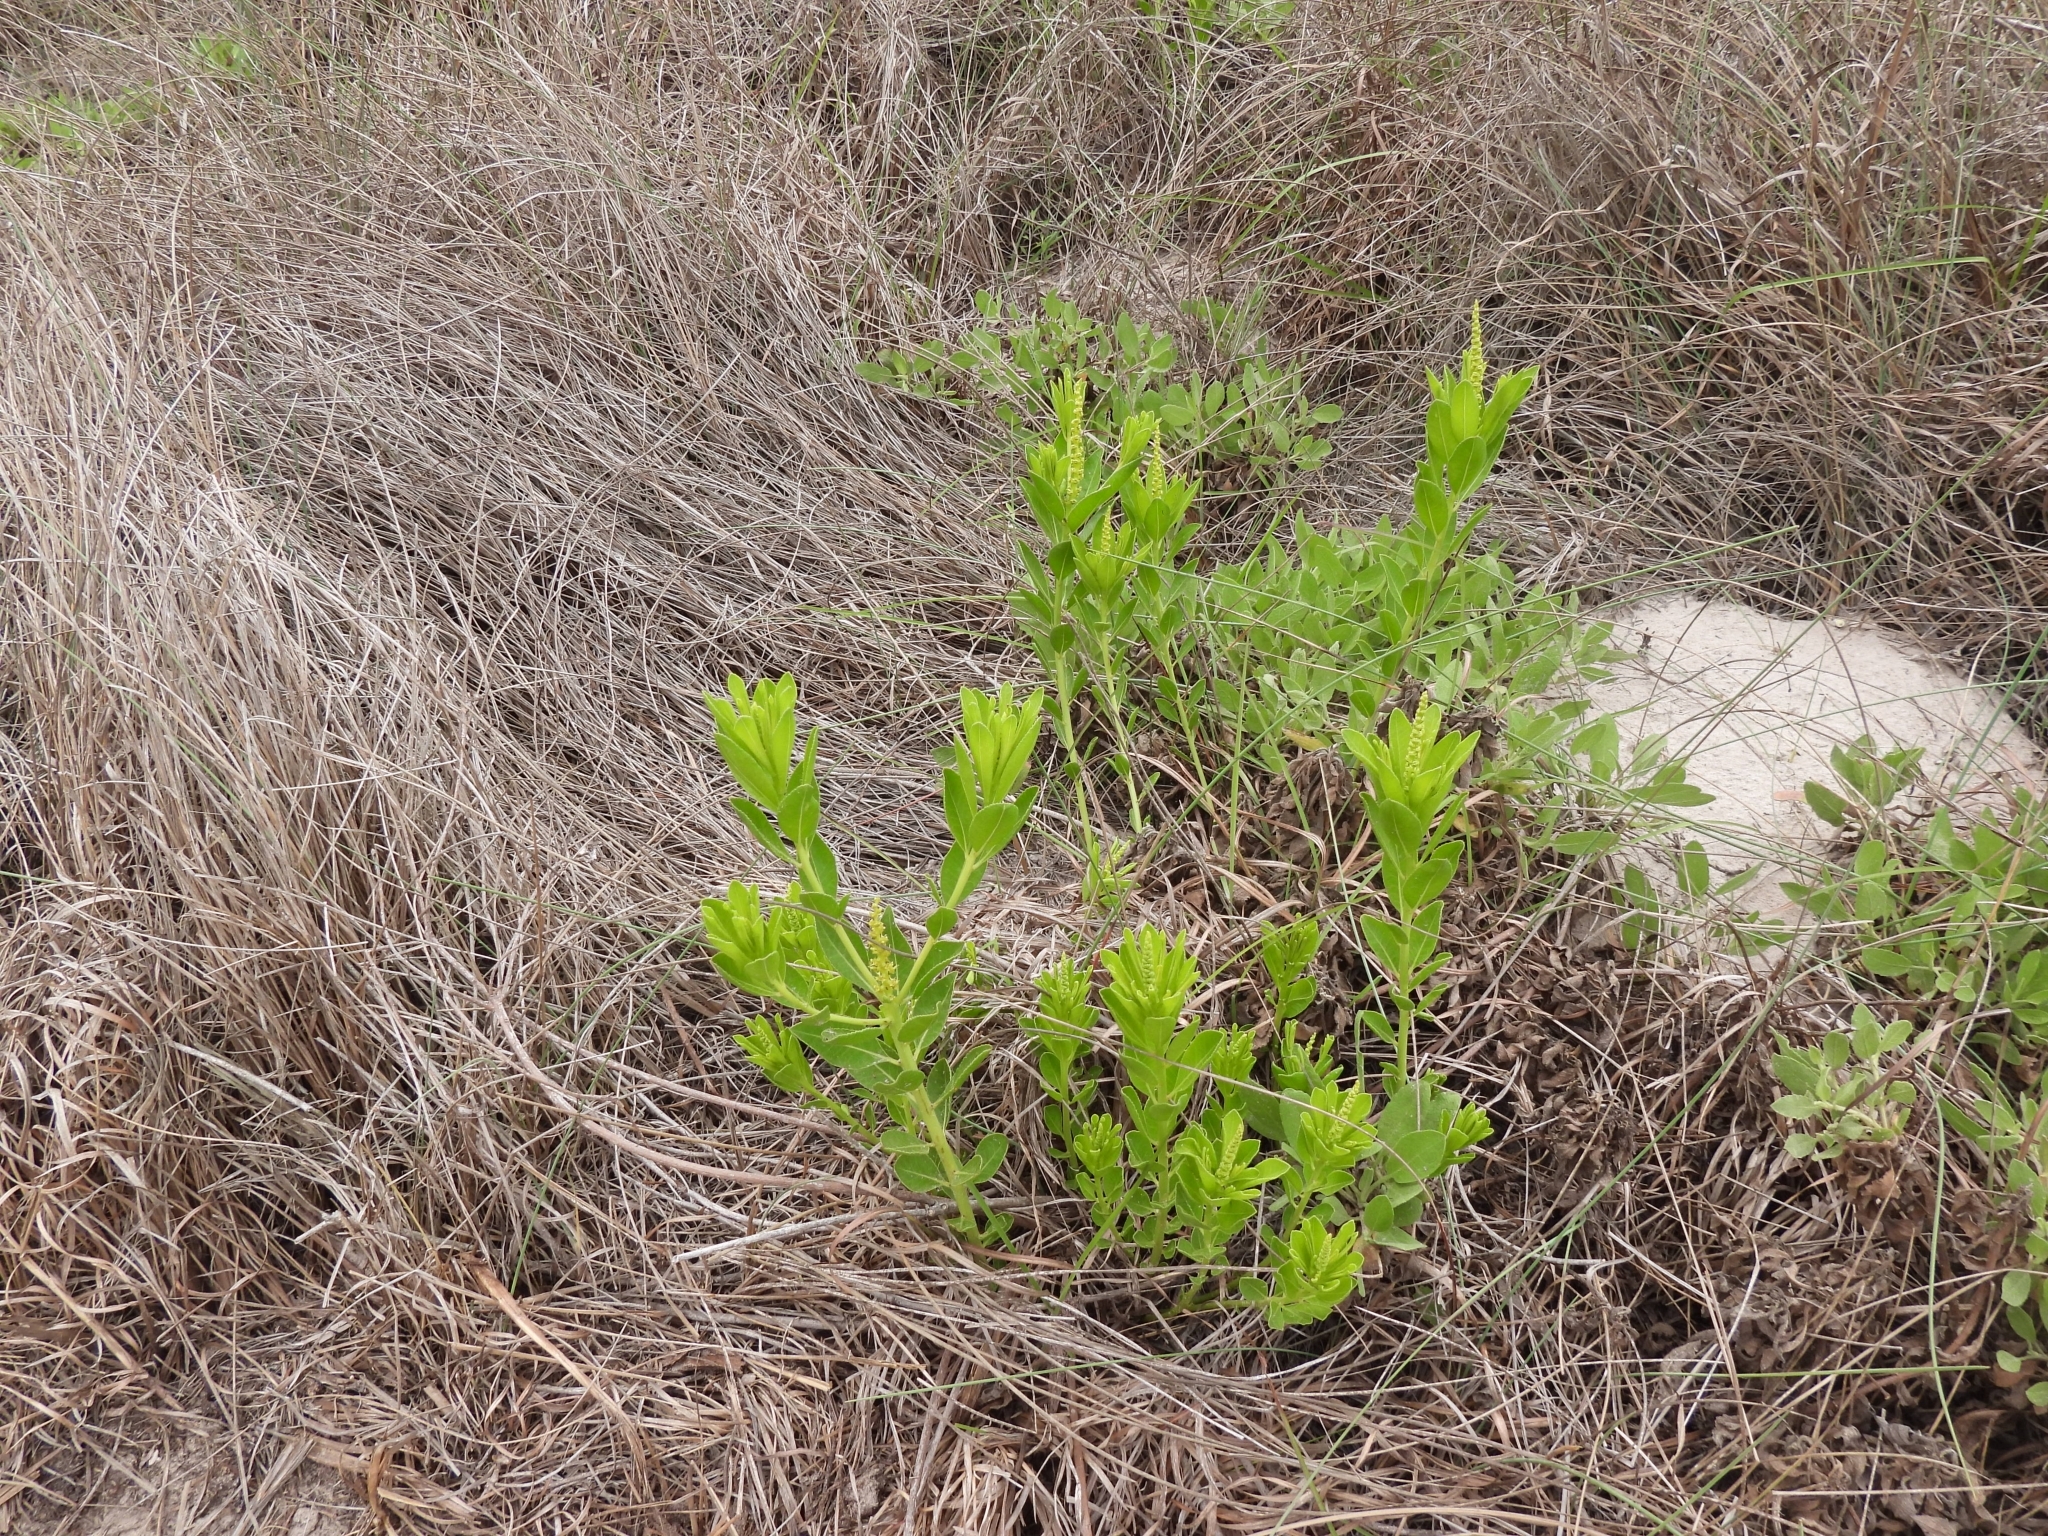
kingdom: Plantae
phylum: Tracheophyta
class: Magnoliopsida
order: Malpighiales
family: Euphorbiaceae
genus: Stillingia
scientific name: Stillingia sylvatica
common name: Queen's-delight
